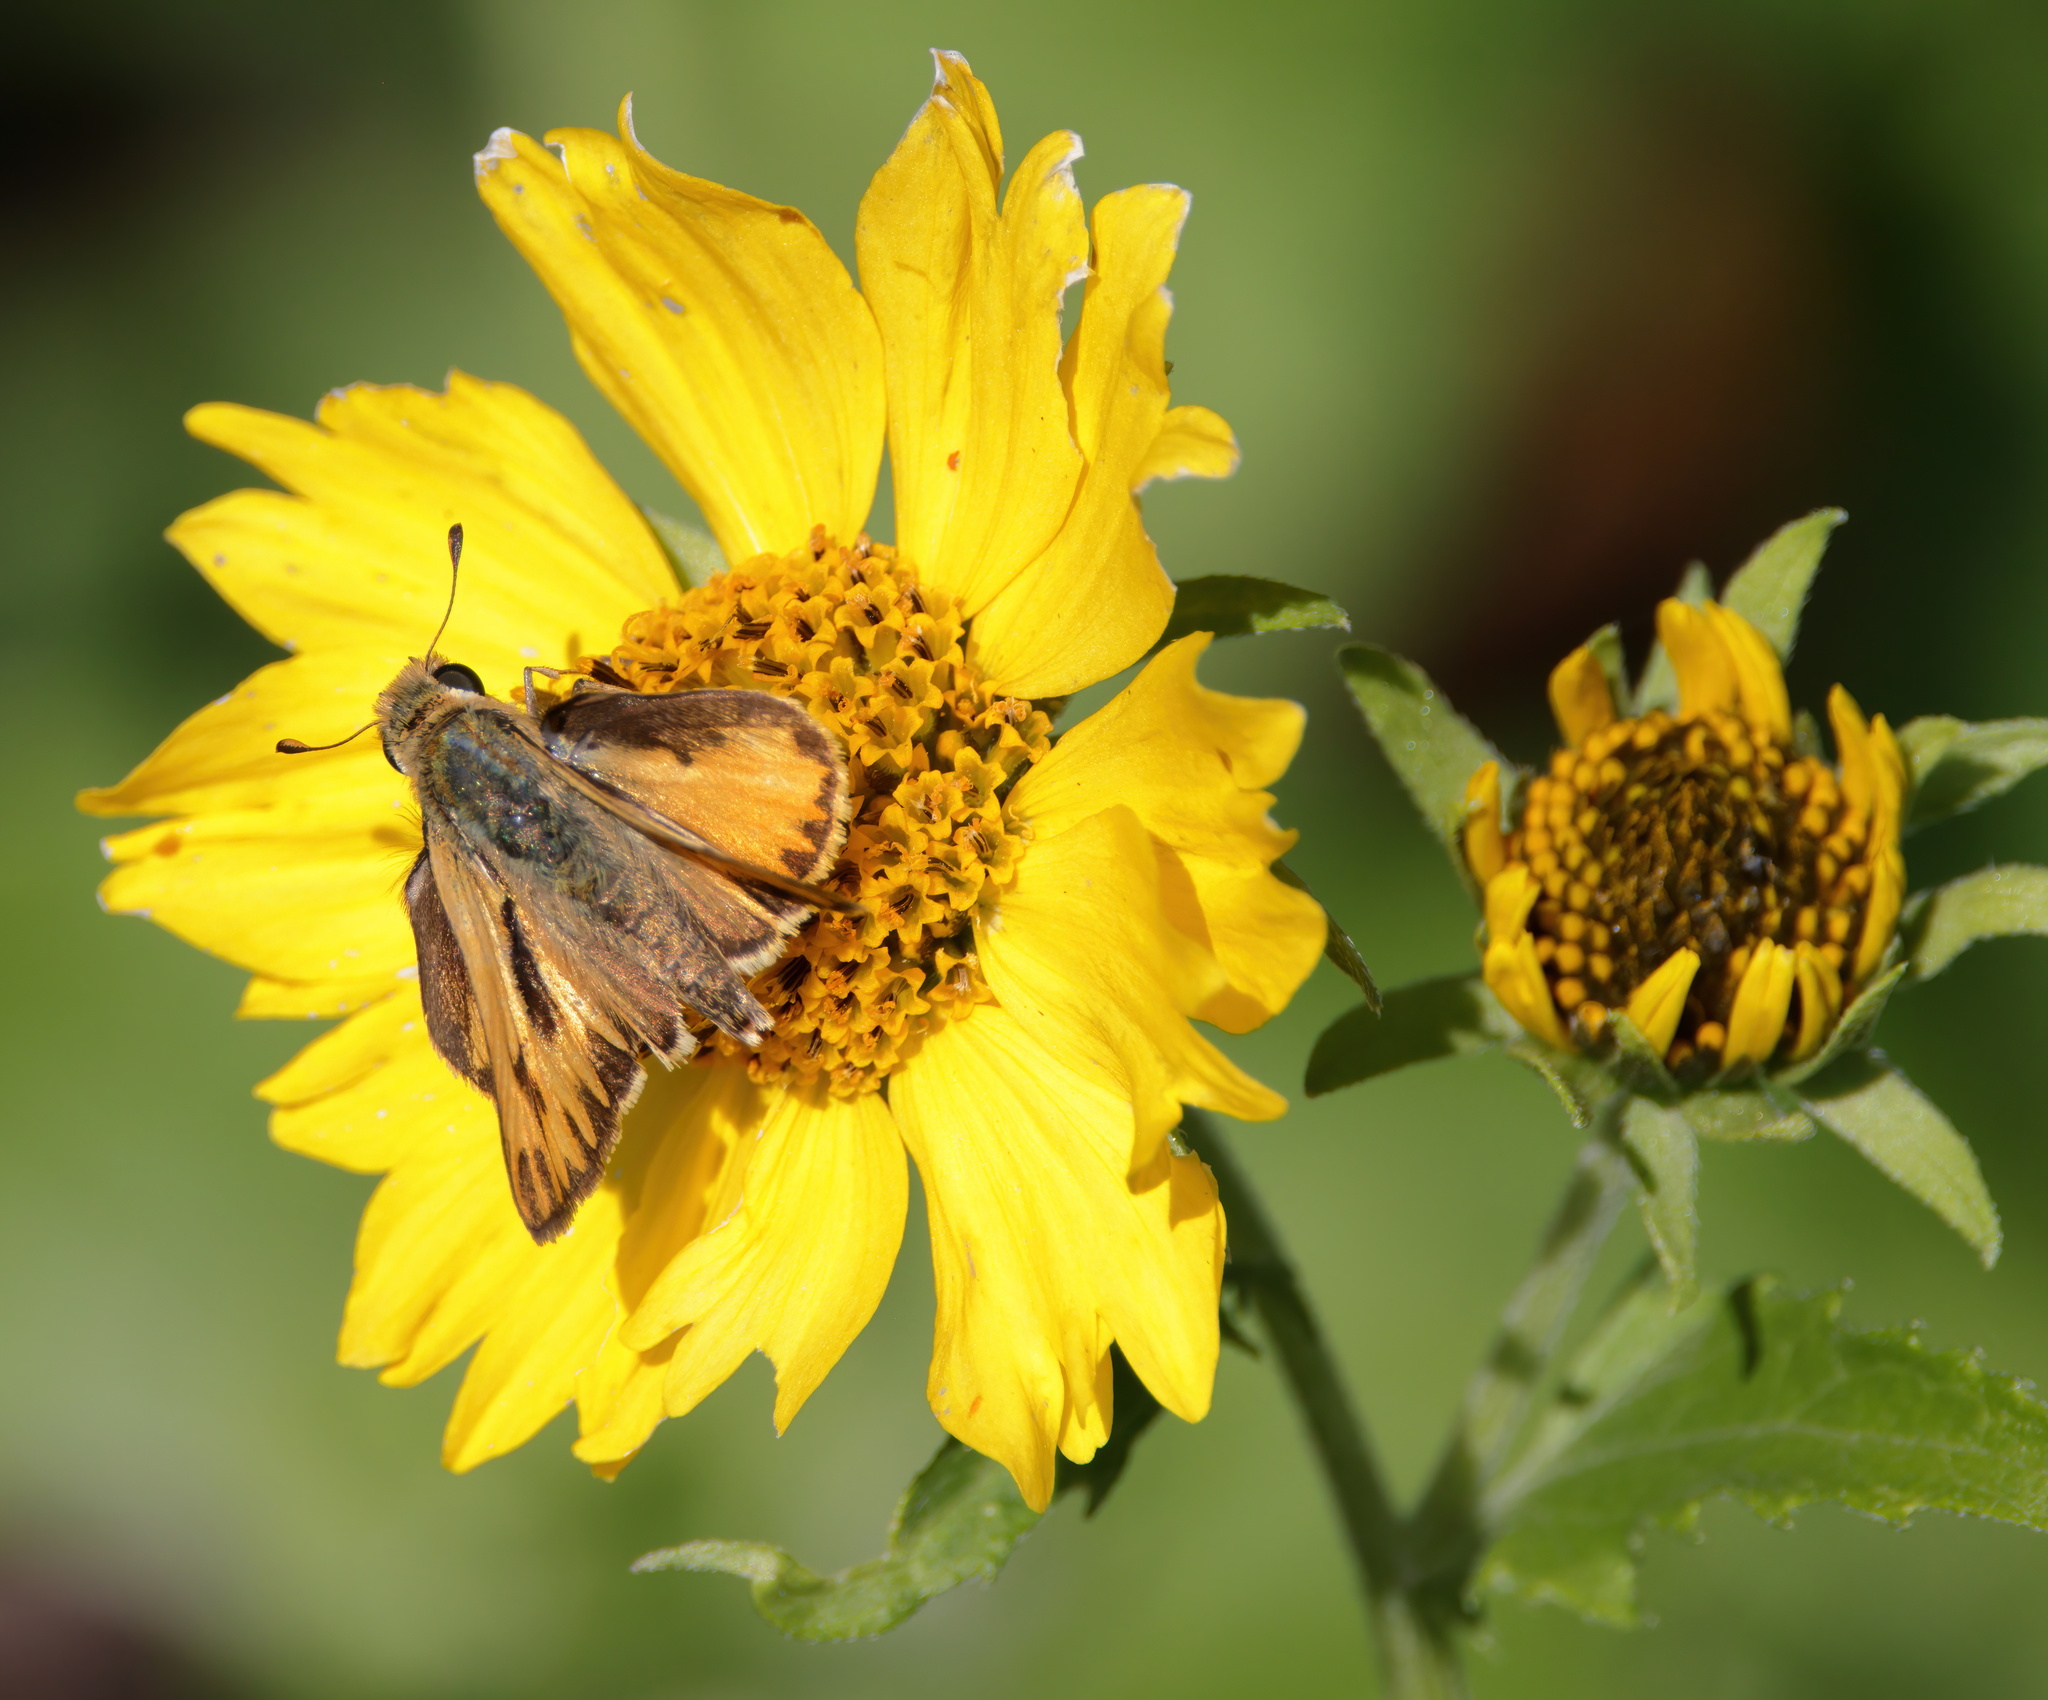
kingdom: Animalia
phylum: Arthropoda
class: Insecta
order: Lepidoptera
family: Hesperiidae
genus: Hylephila
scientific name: Hylephila phyleus
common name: Fiery skipper
